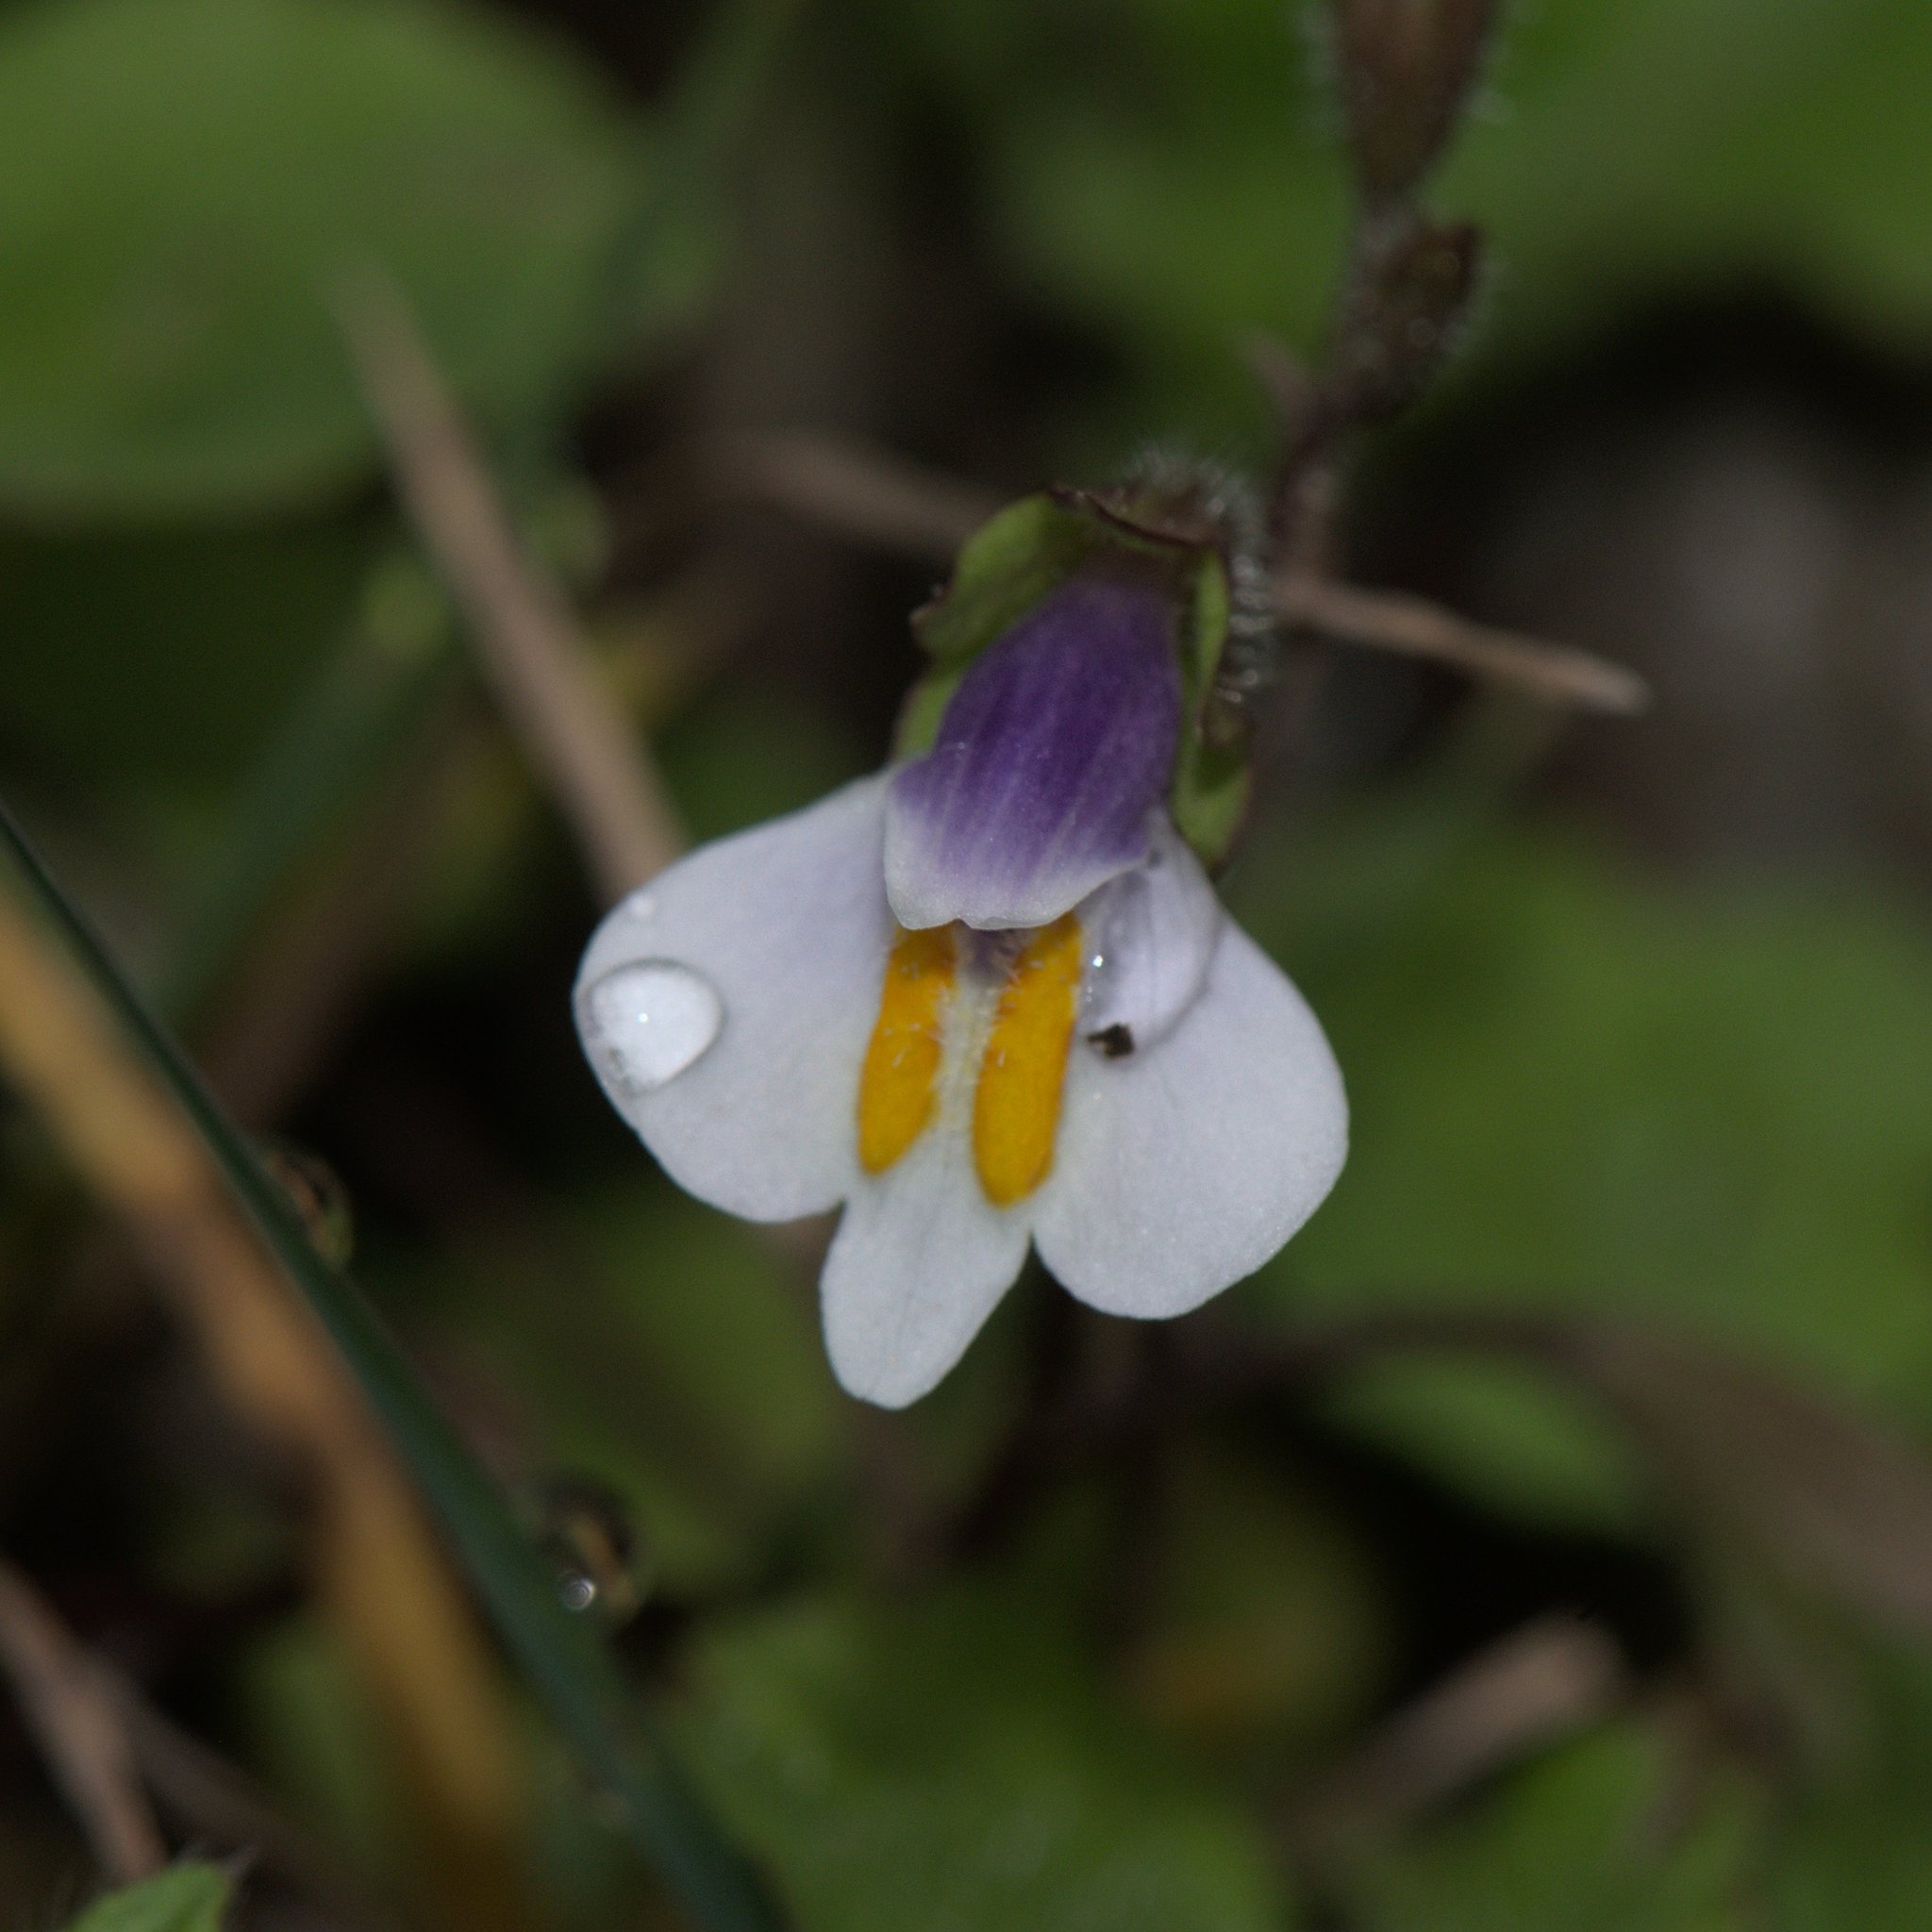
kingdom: Plantae
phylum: Tracheophyta
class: Magnoliopsida
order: Lamiales
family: Mazaceae
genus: Mazus
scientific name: Mazus surculosus
